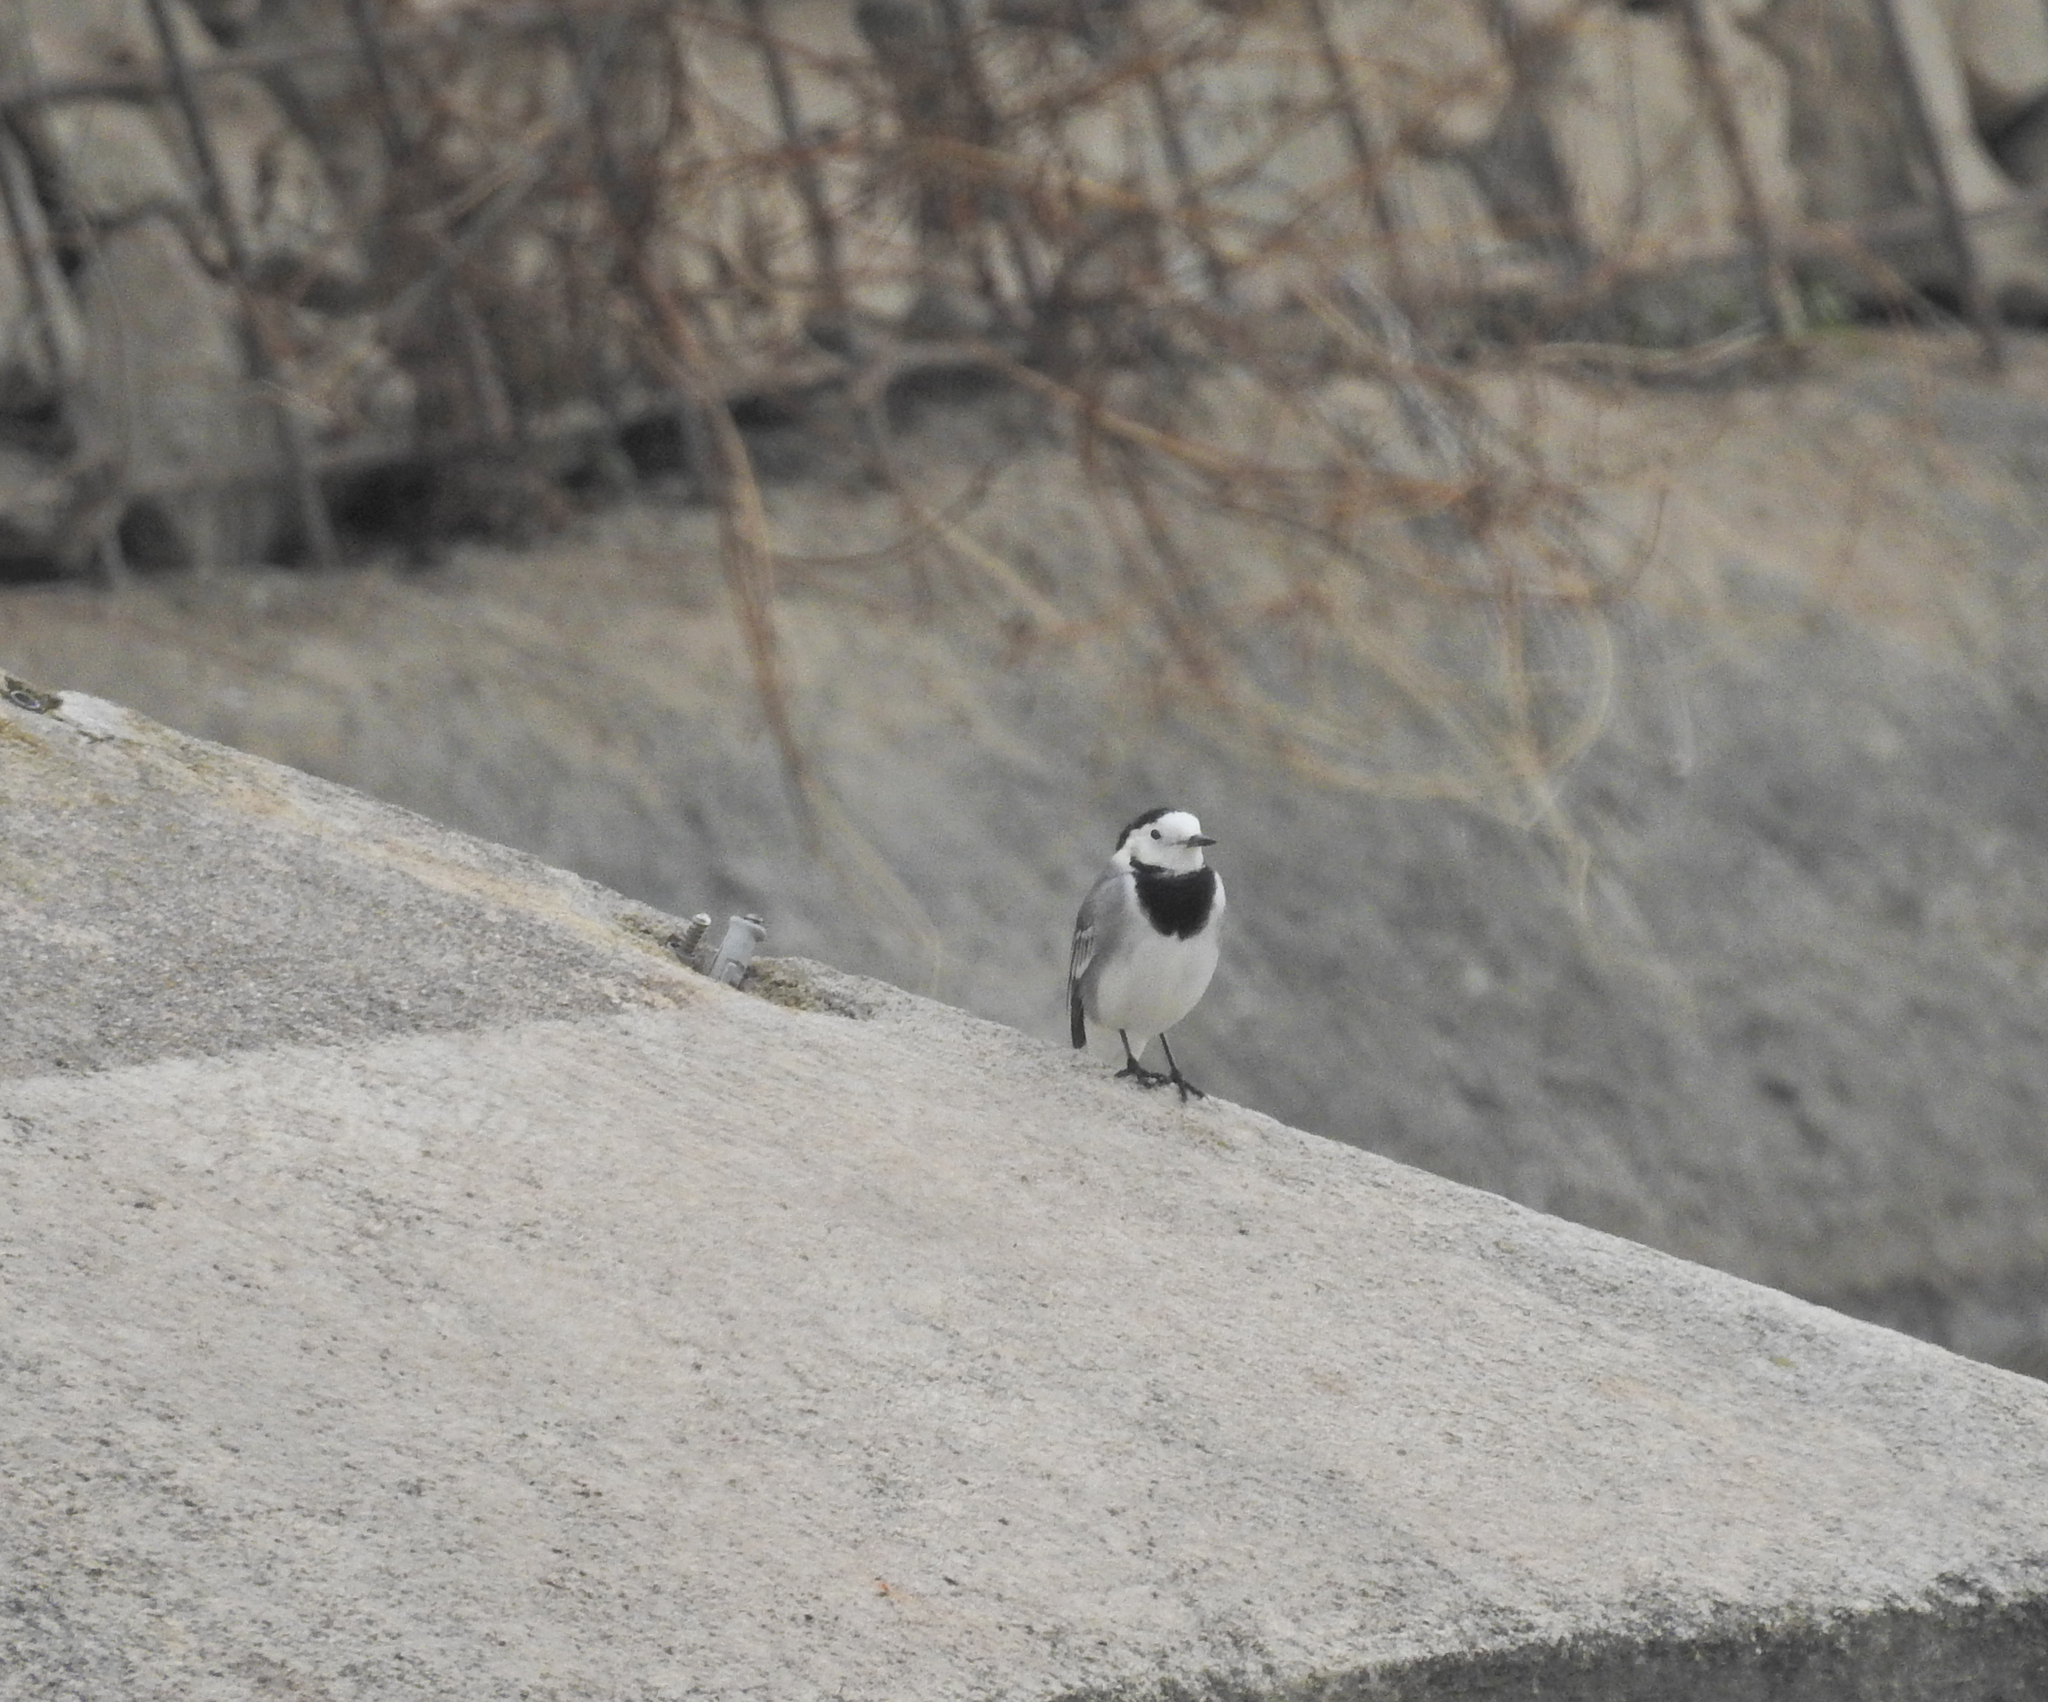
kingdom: Animalia
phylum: Chordata
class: Aves
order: Passeriformes
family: Motacillidae
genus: Motacilla
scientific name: Motacilla alba
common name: White wagtail
